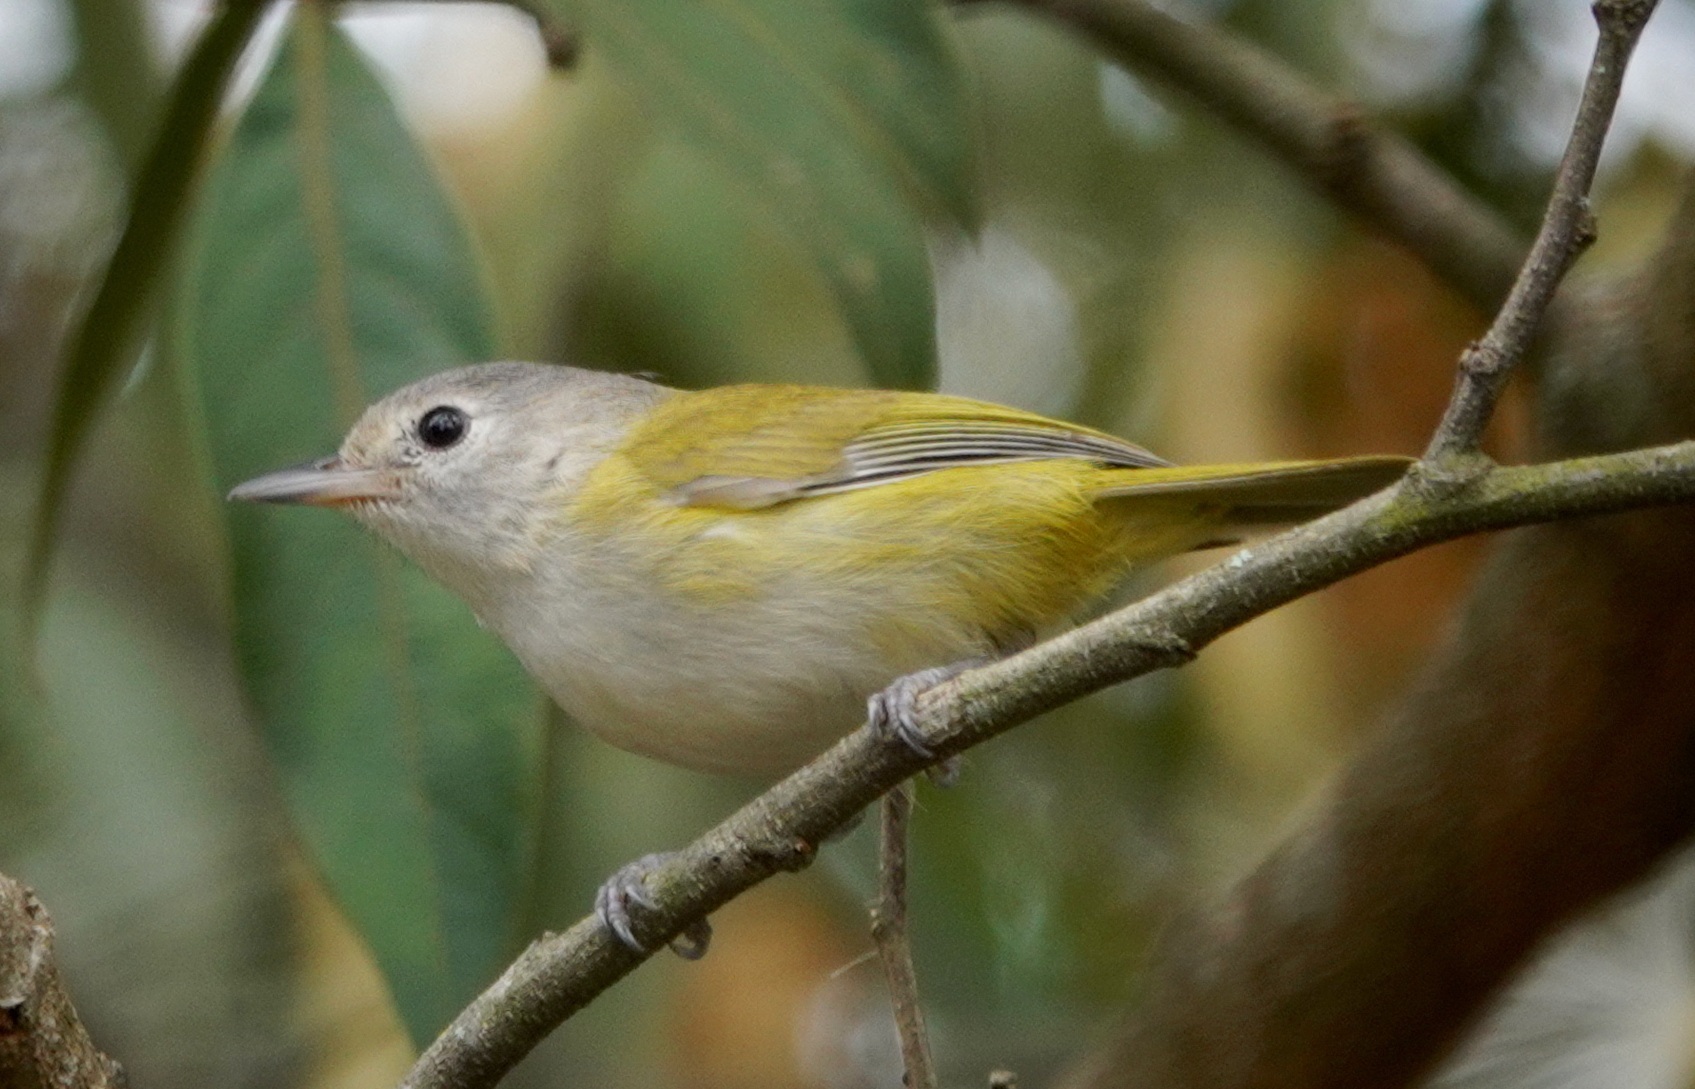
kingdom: Animalia
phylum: Chordata
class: Aves
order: Passeriformes
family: Vireonidae
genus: Hylophilus
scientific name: Hylophilus decurtatus
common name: Lesser greenlet
